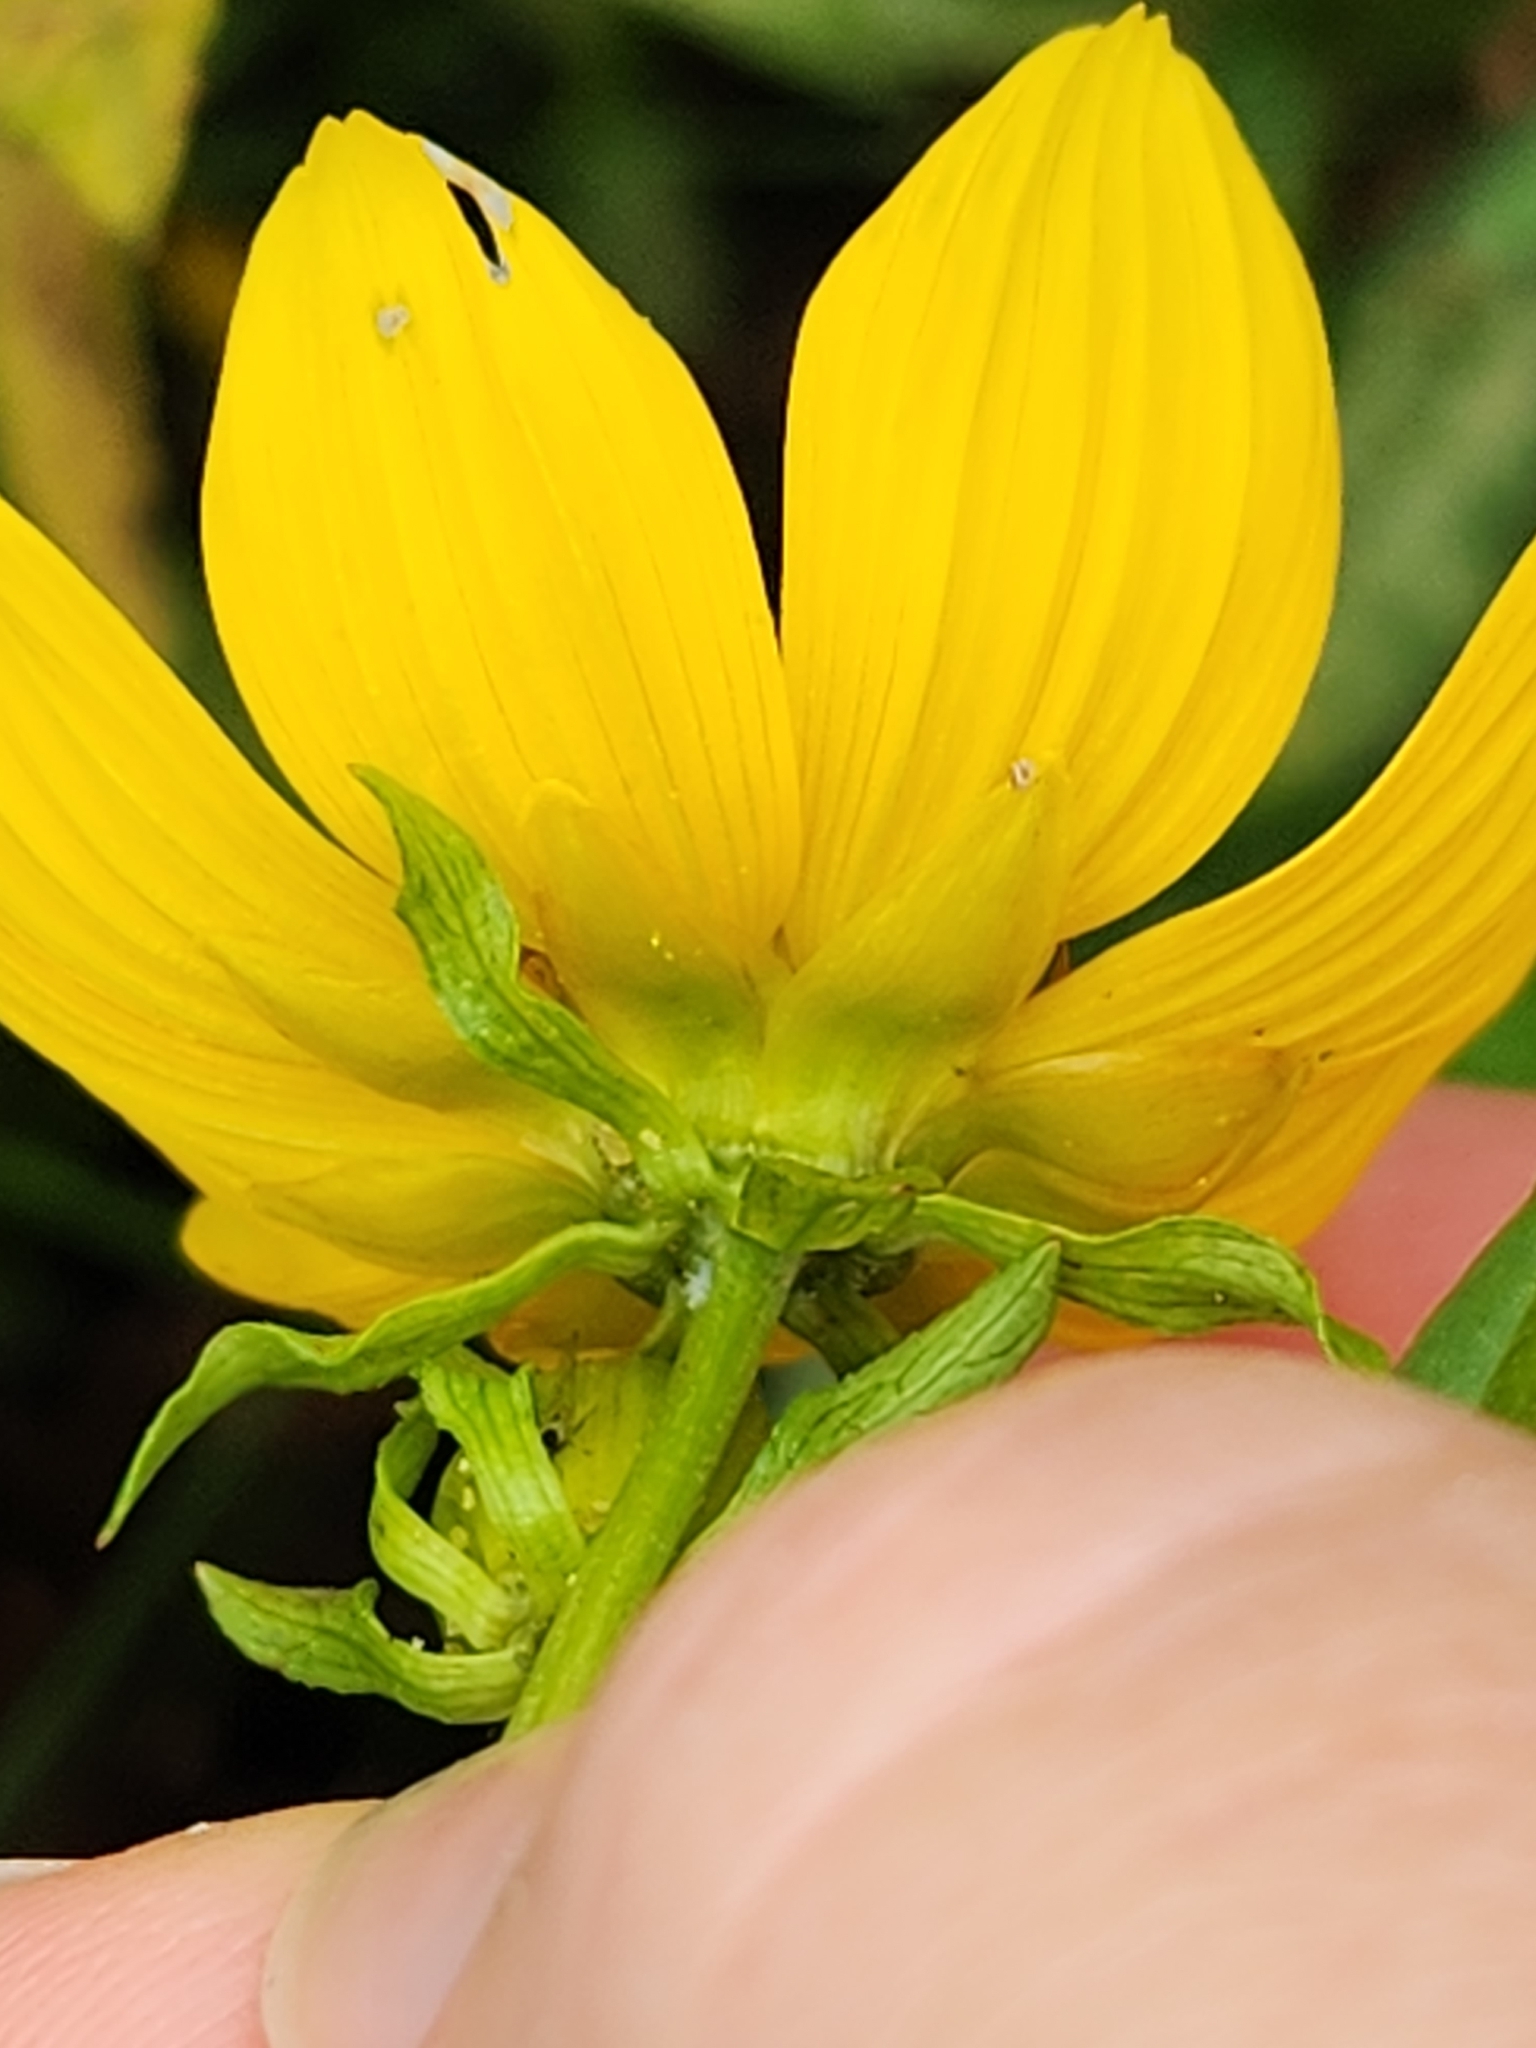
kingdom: Plantae
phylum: Tracheophyta
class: Magnoliopsida
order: Asterales
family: Asteraceae
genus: Bidens
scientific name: Bidens laevis
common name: Larger bur-marigold
